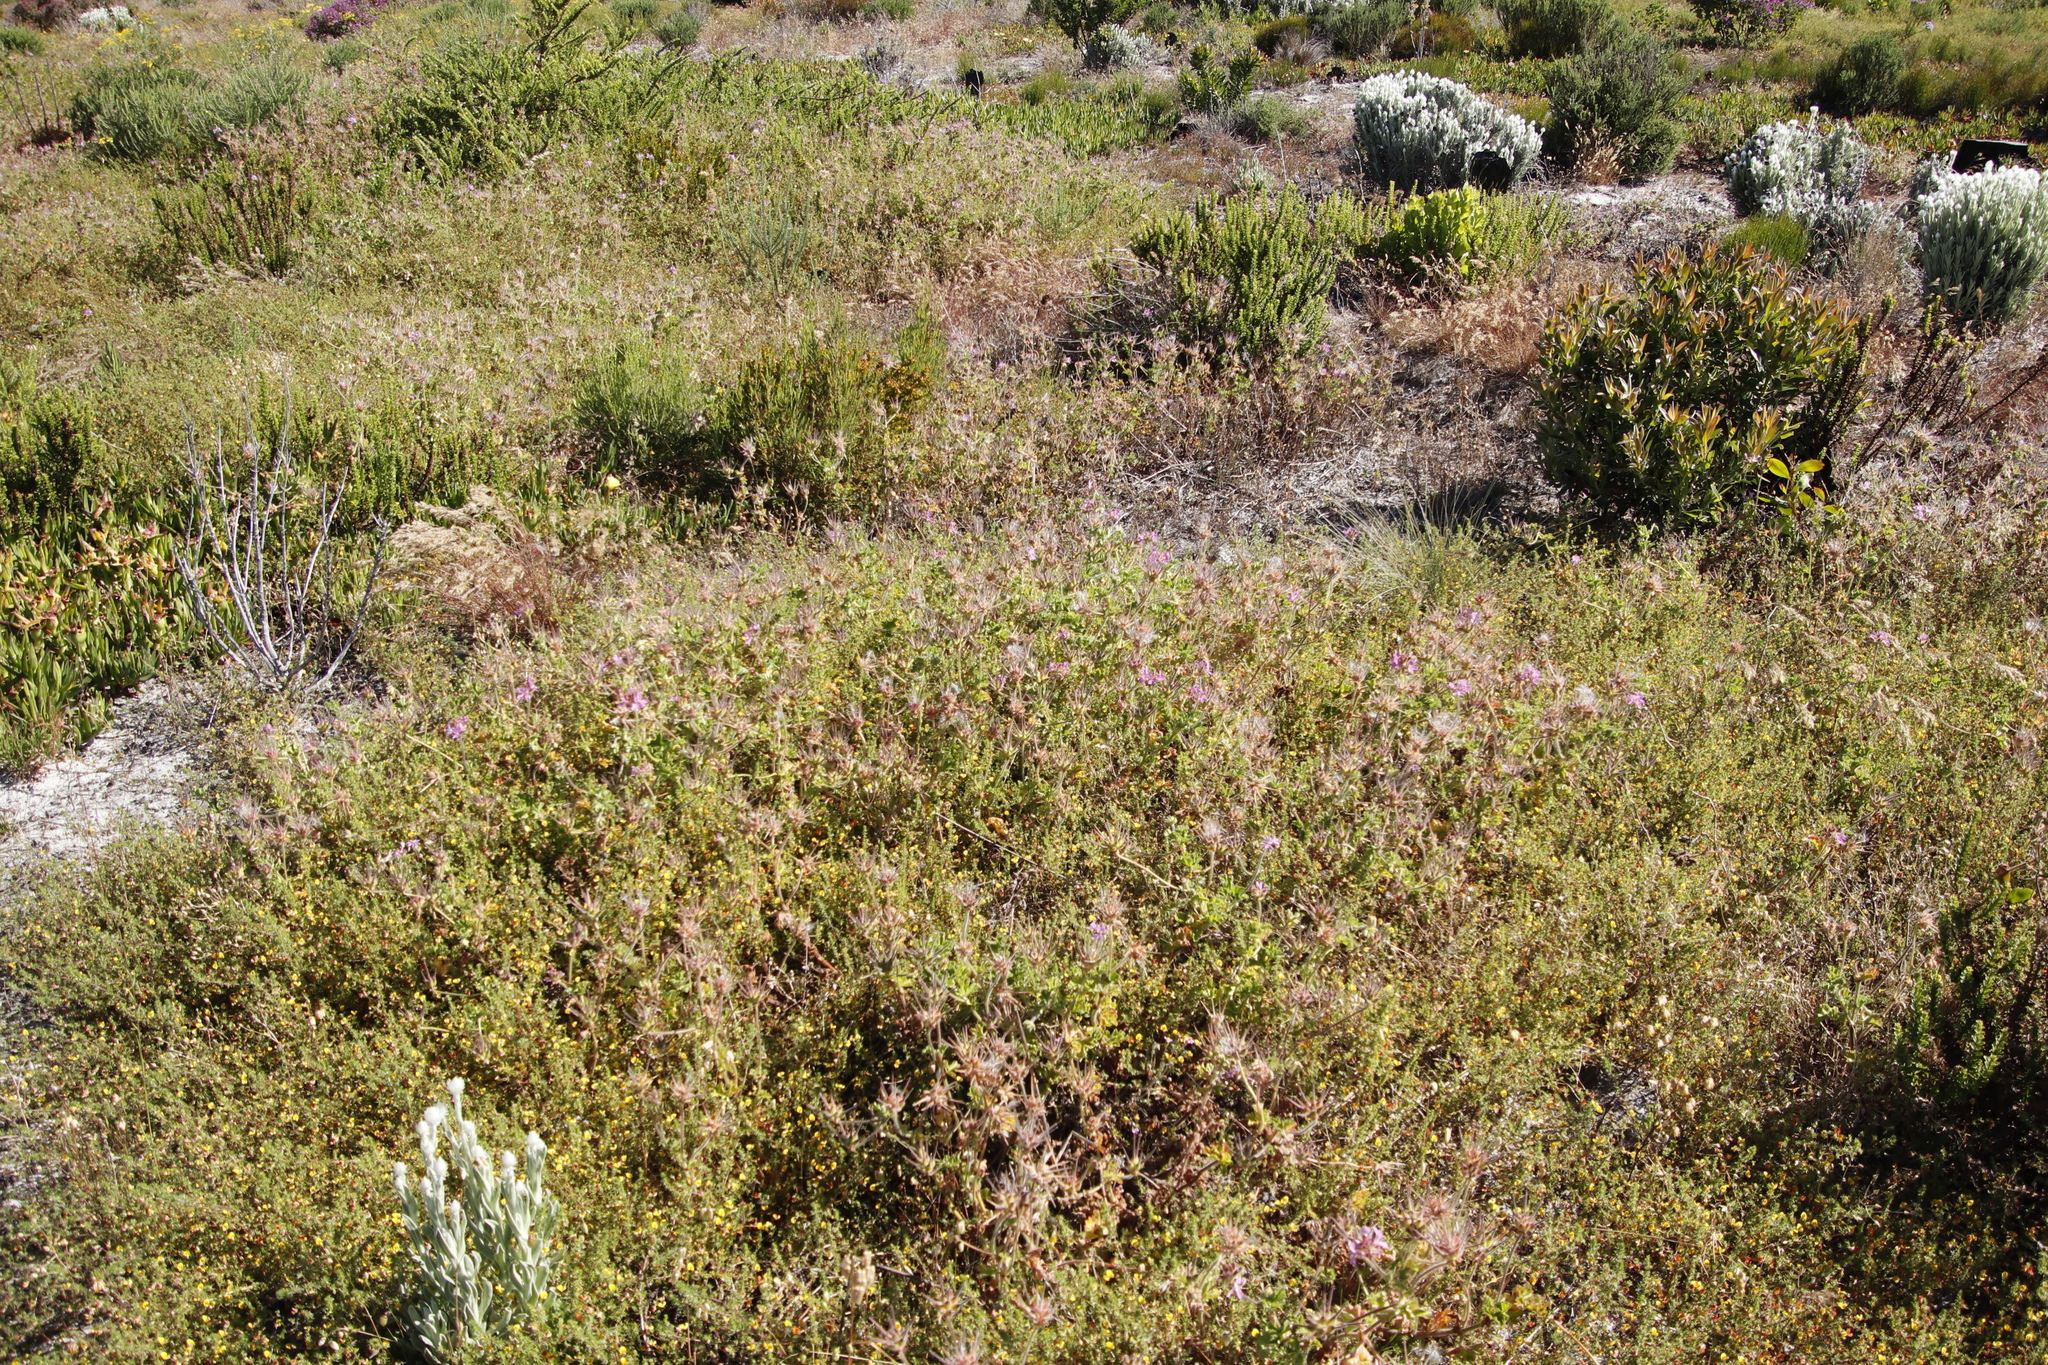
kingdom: Plantae
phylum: Tracheophyta
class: Magnoliopsida
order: Geraniales
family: Geraniaceae
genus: Pelargonium
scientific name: Pelargonium capitatum
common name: Rose scented geranium
